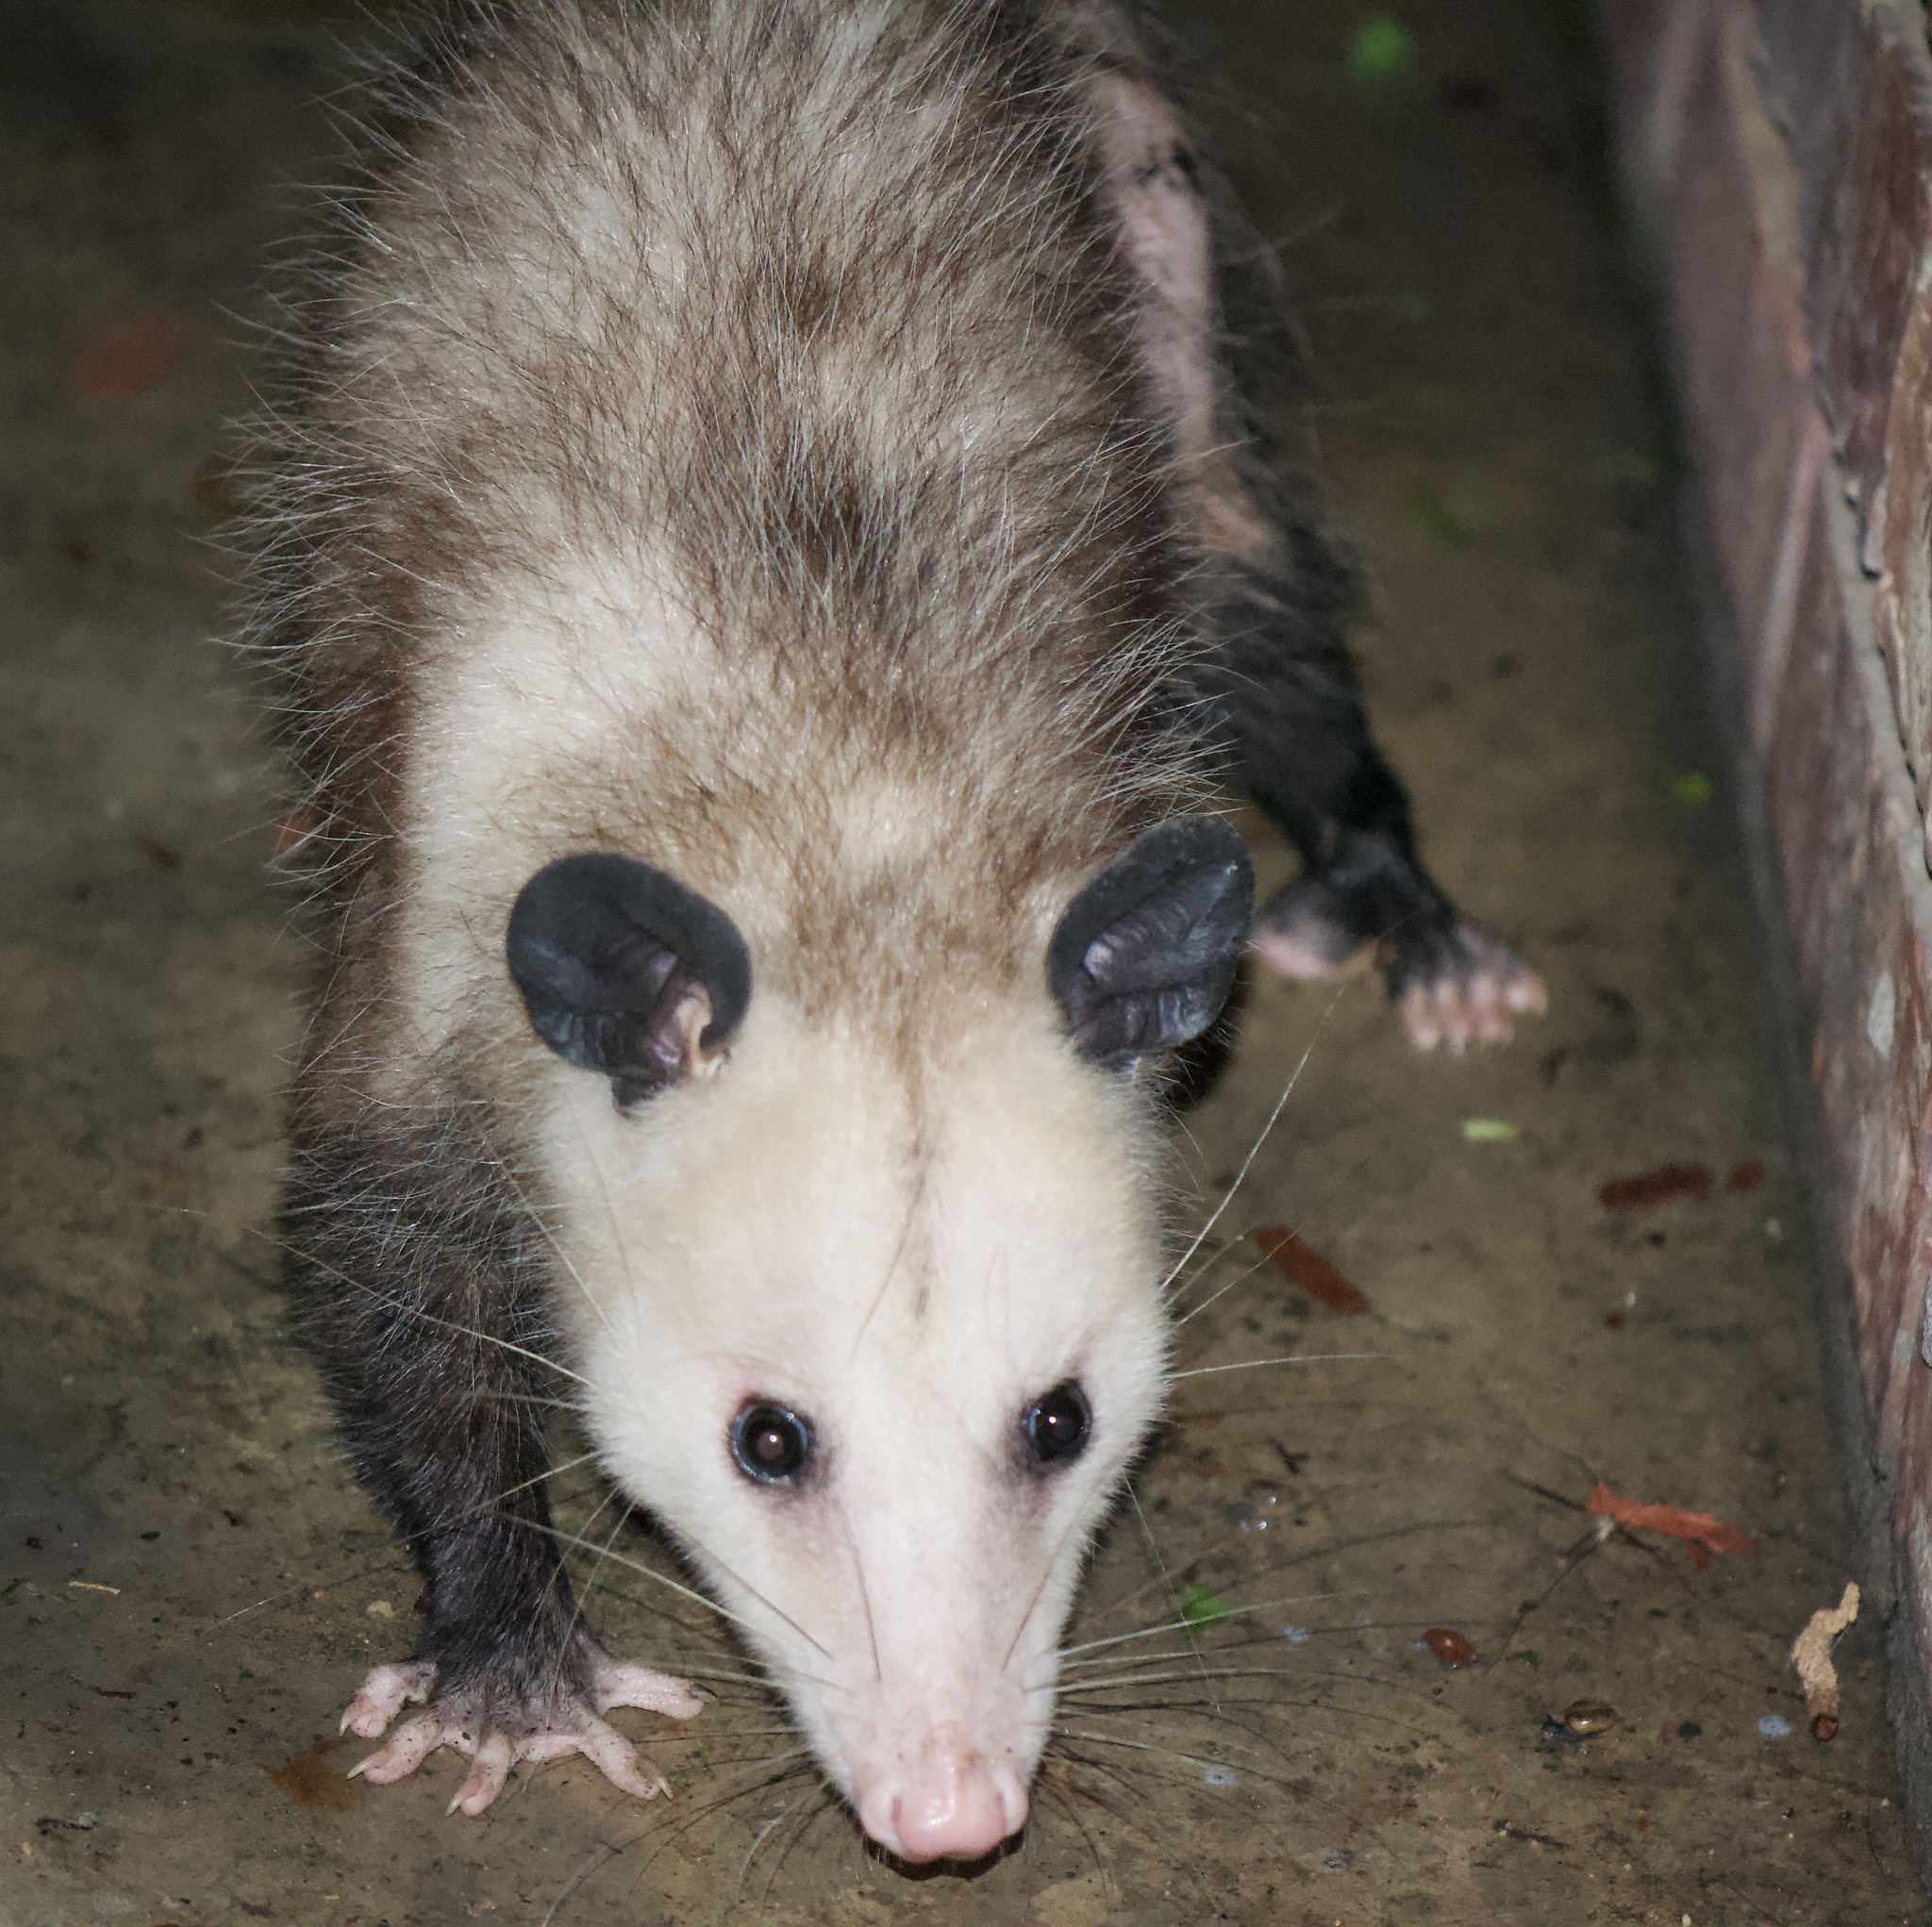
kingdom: Animalia
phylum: Chordata
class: Mammalia
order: Didelphimorphia
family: Didelphidae
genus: Didelphis
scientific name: Didelphis virginiana
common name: Virginia opossum
